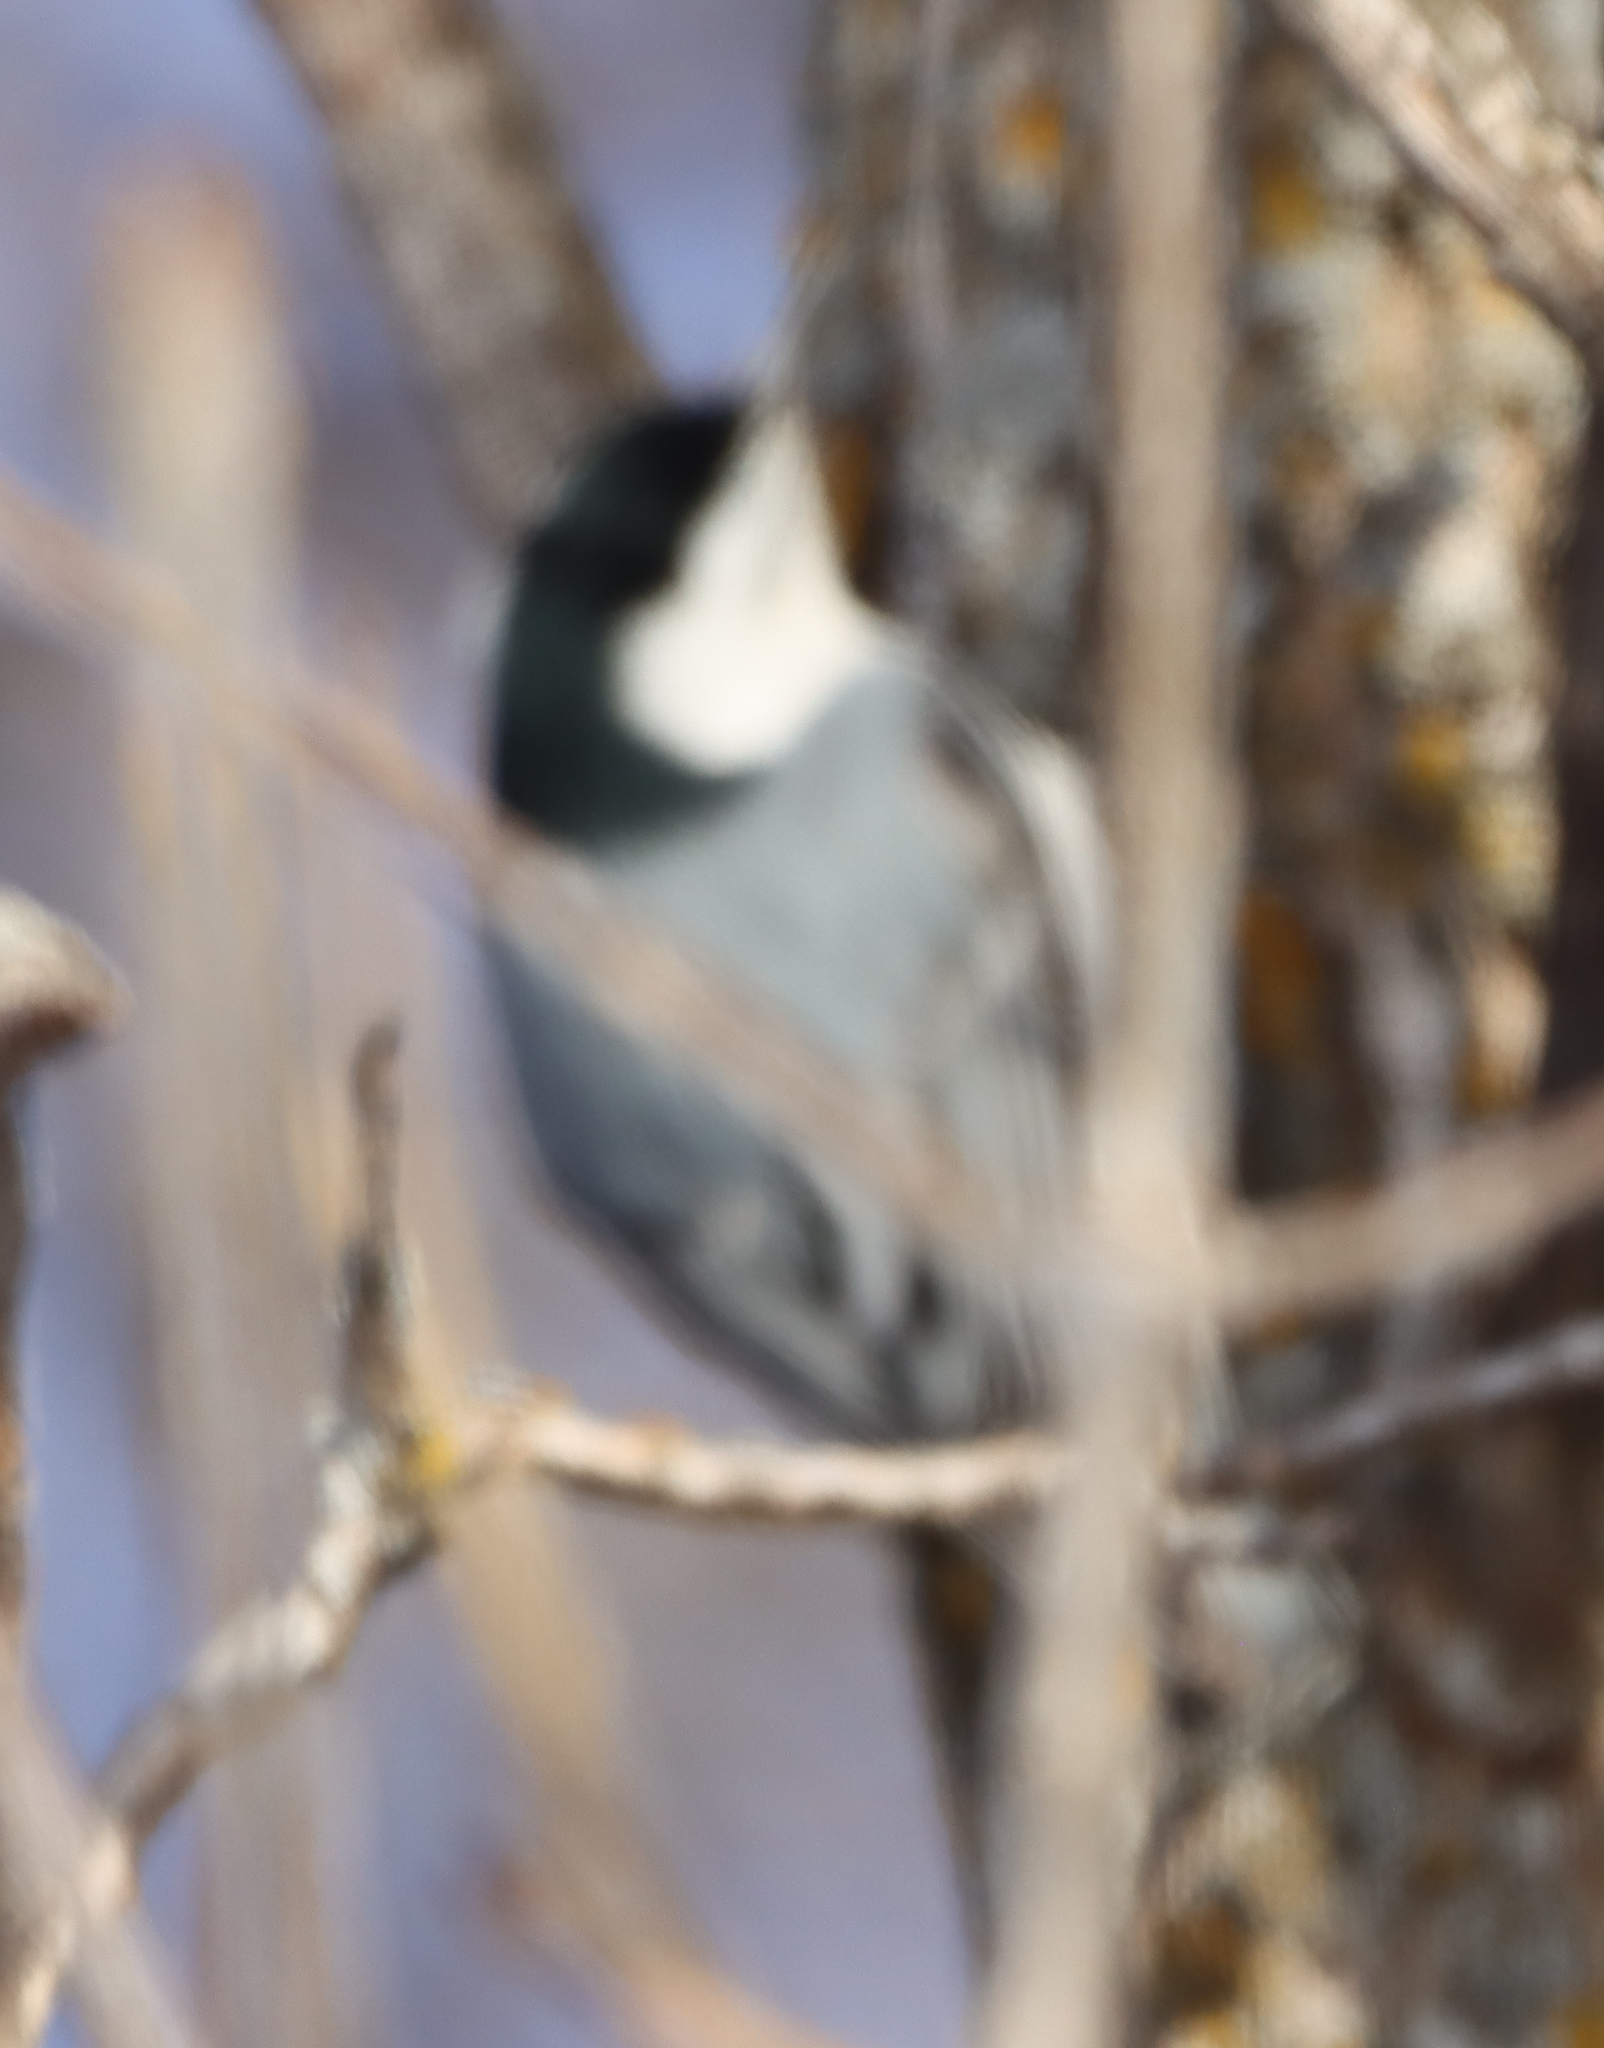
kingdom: Animalia
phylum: Chordata
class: Aves
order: Passeriformes
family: Sittidae
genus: Sitta
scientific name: Sitta carolinensis
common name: White-breasted nuthatch
